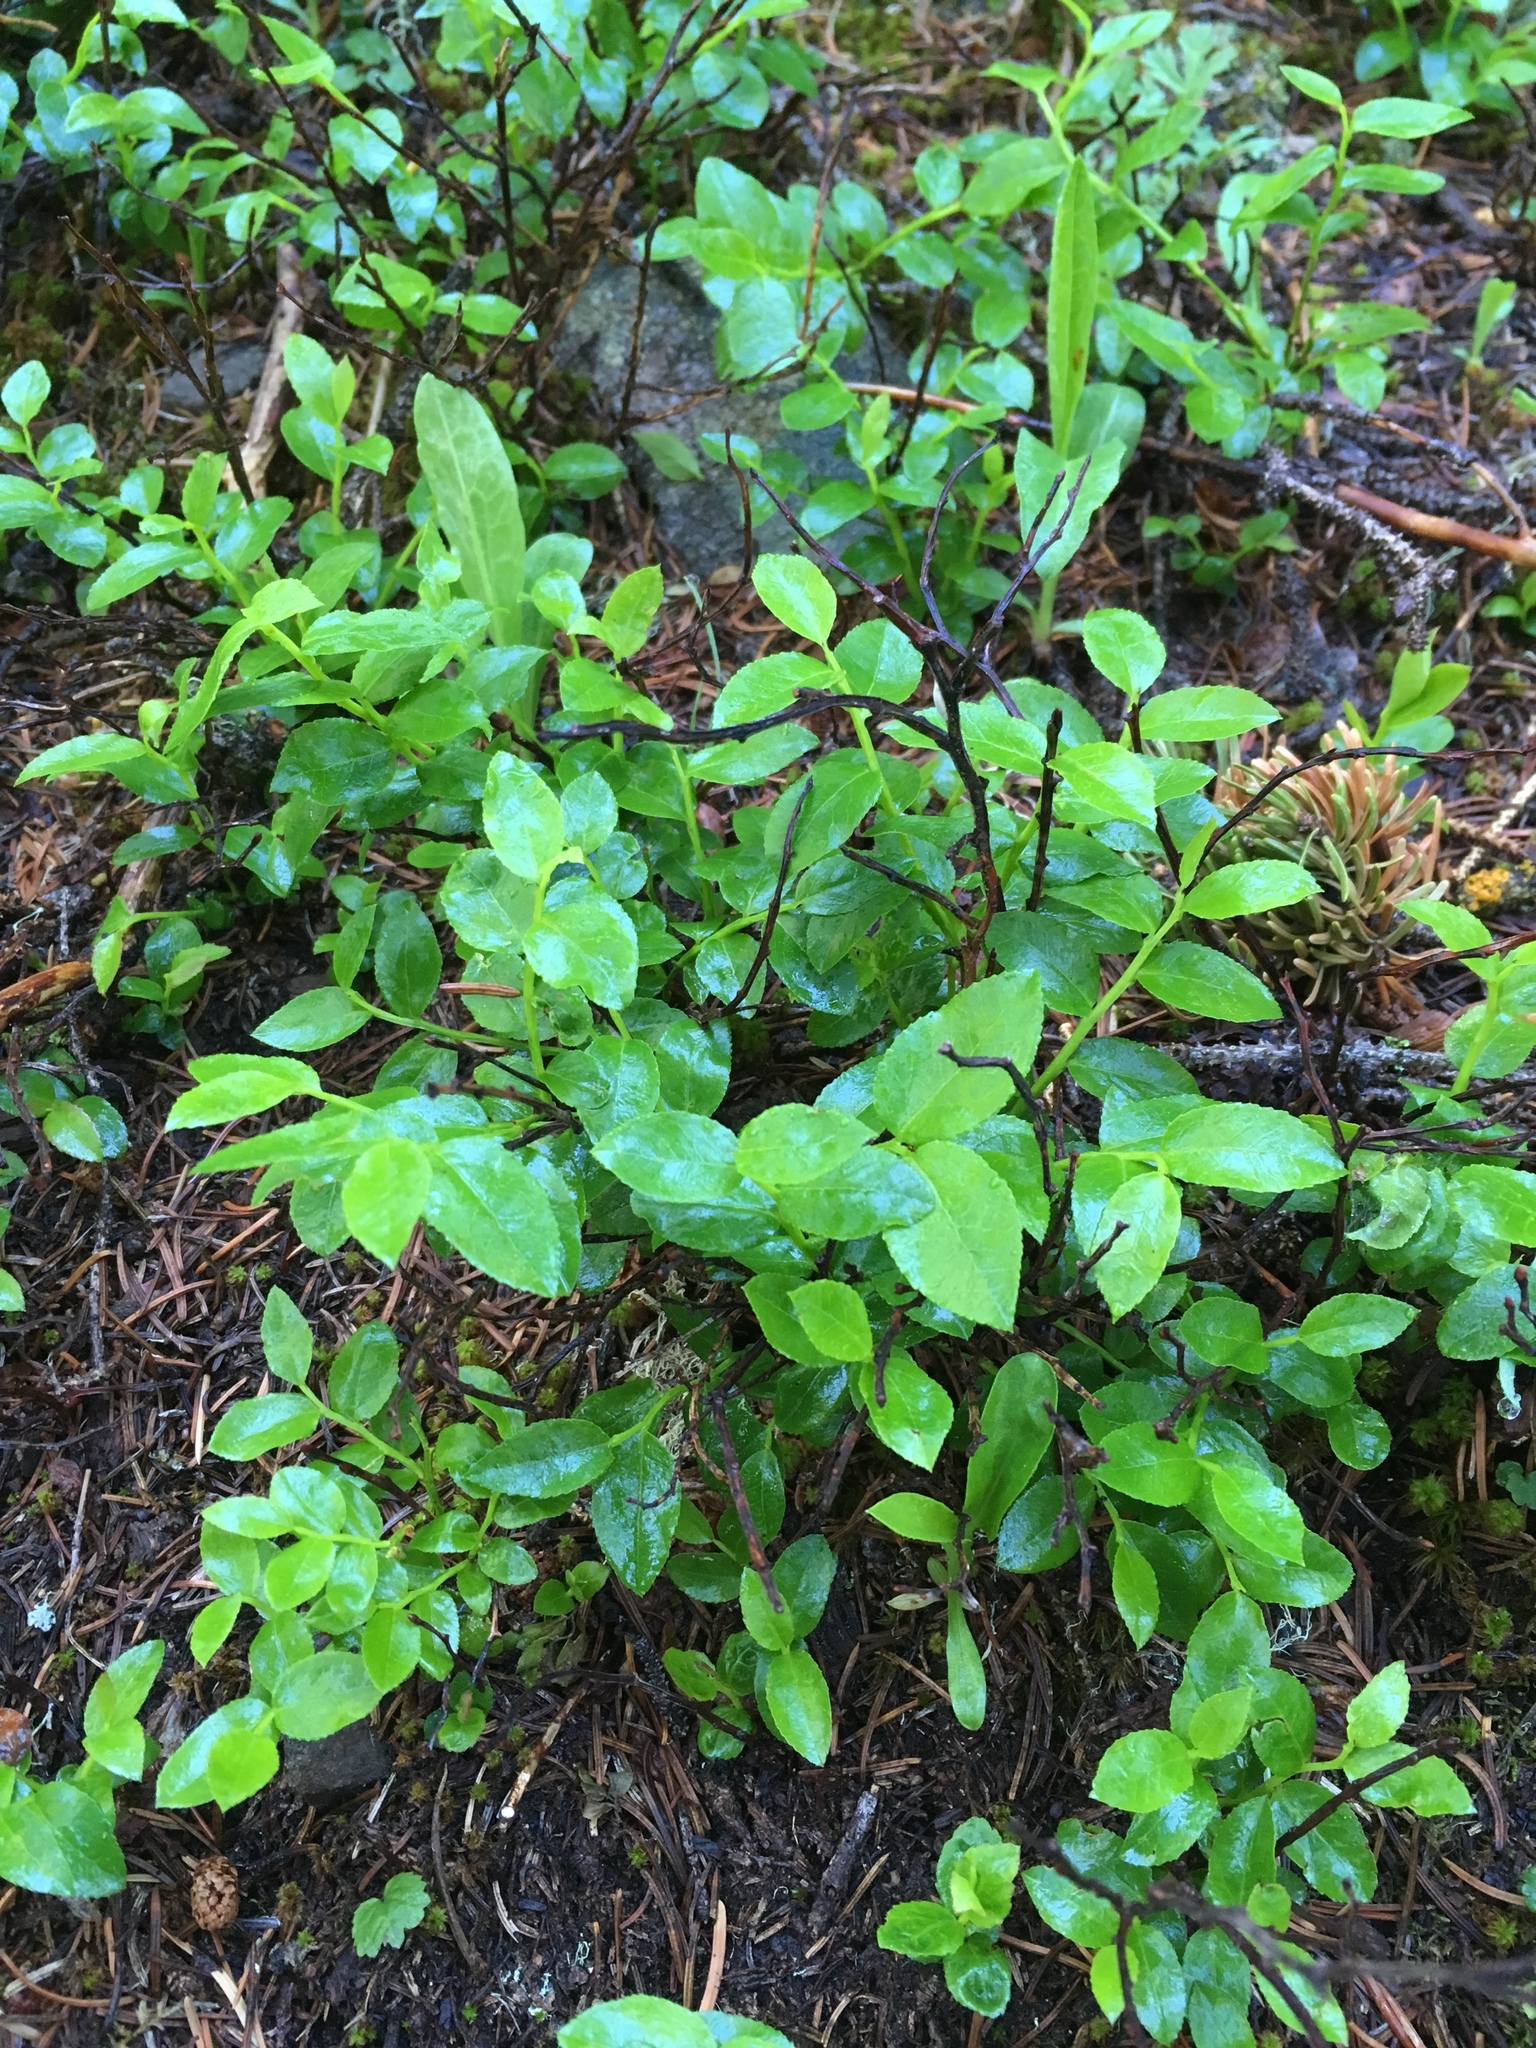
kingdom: Plantae
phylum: Tracheophyta
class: Magnoliopsida
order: Ericales
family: Ericaceae
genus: Vaccinium
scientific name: Vaccinium myrtillus
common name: Bilberry
